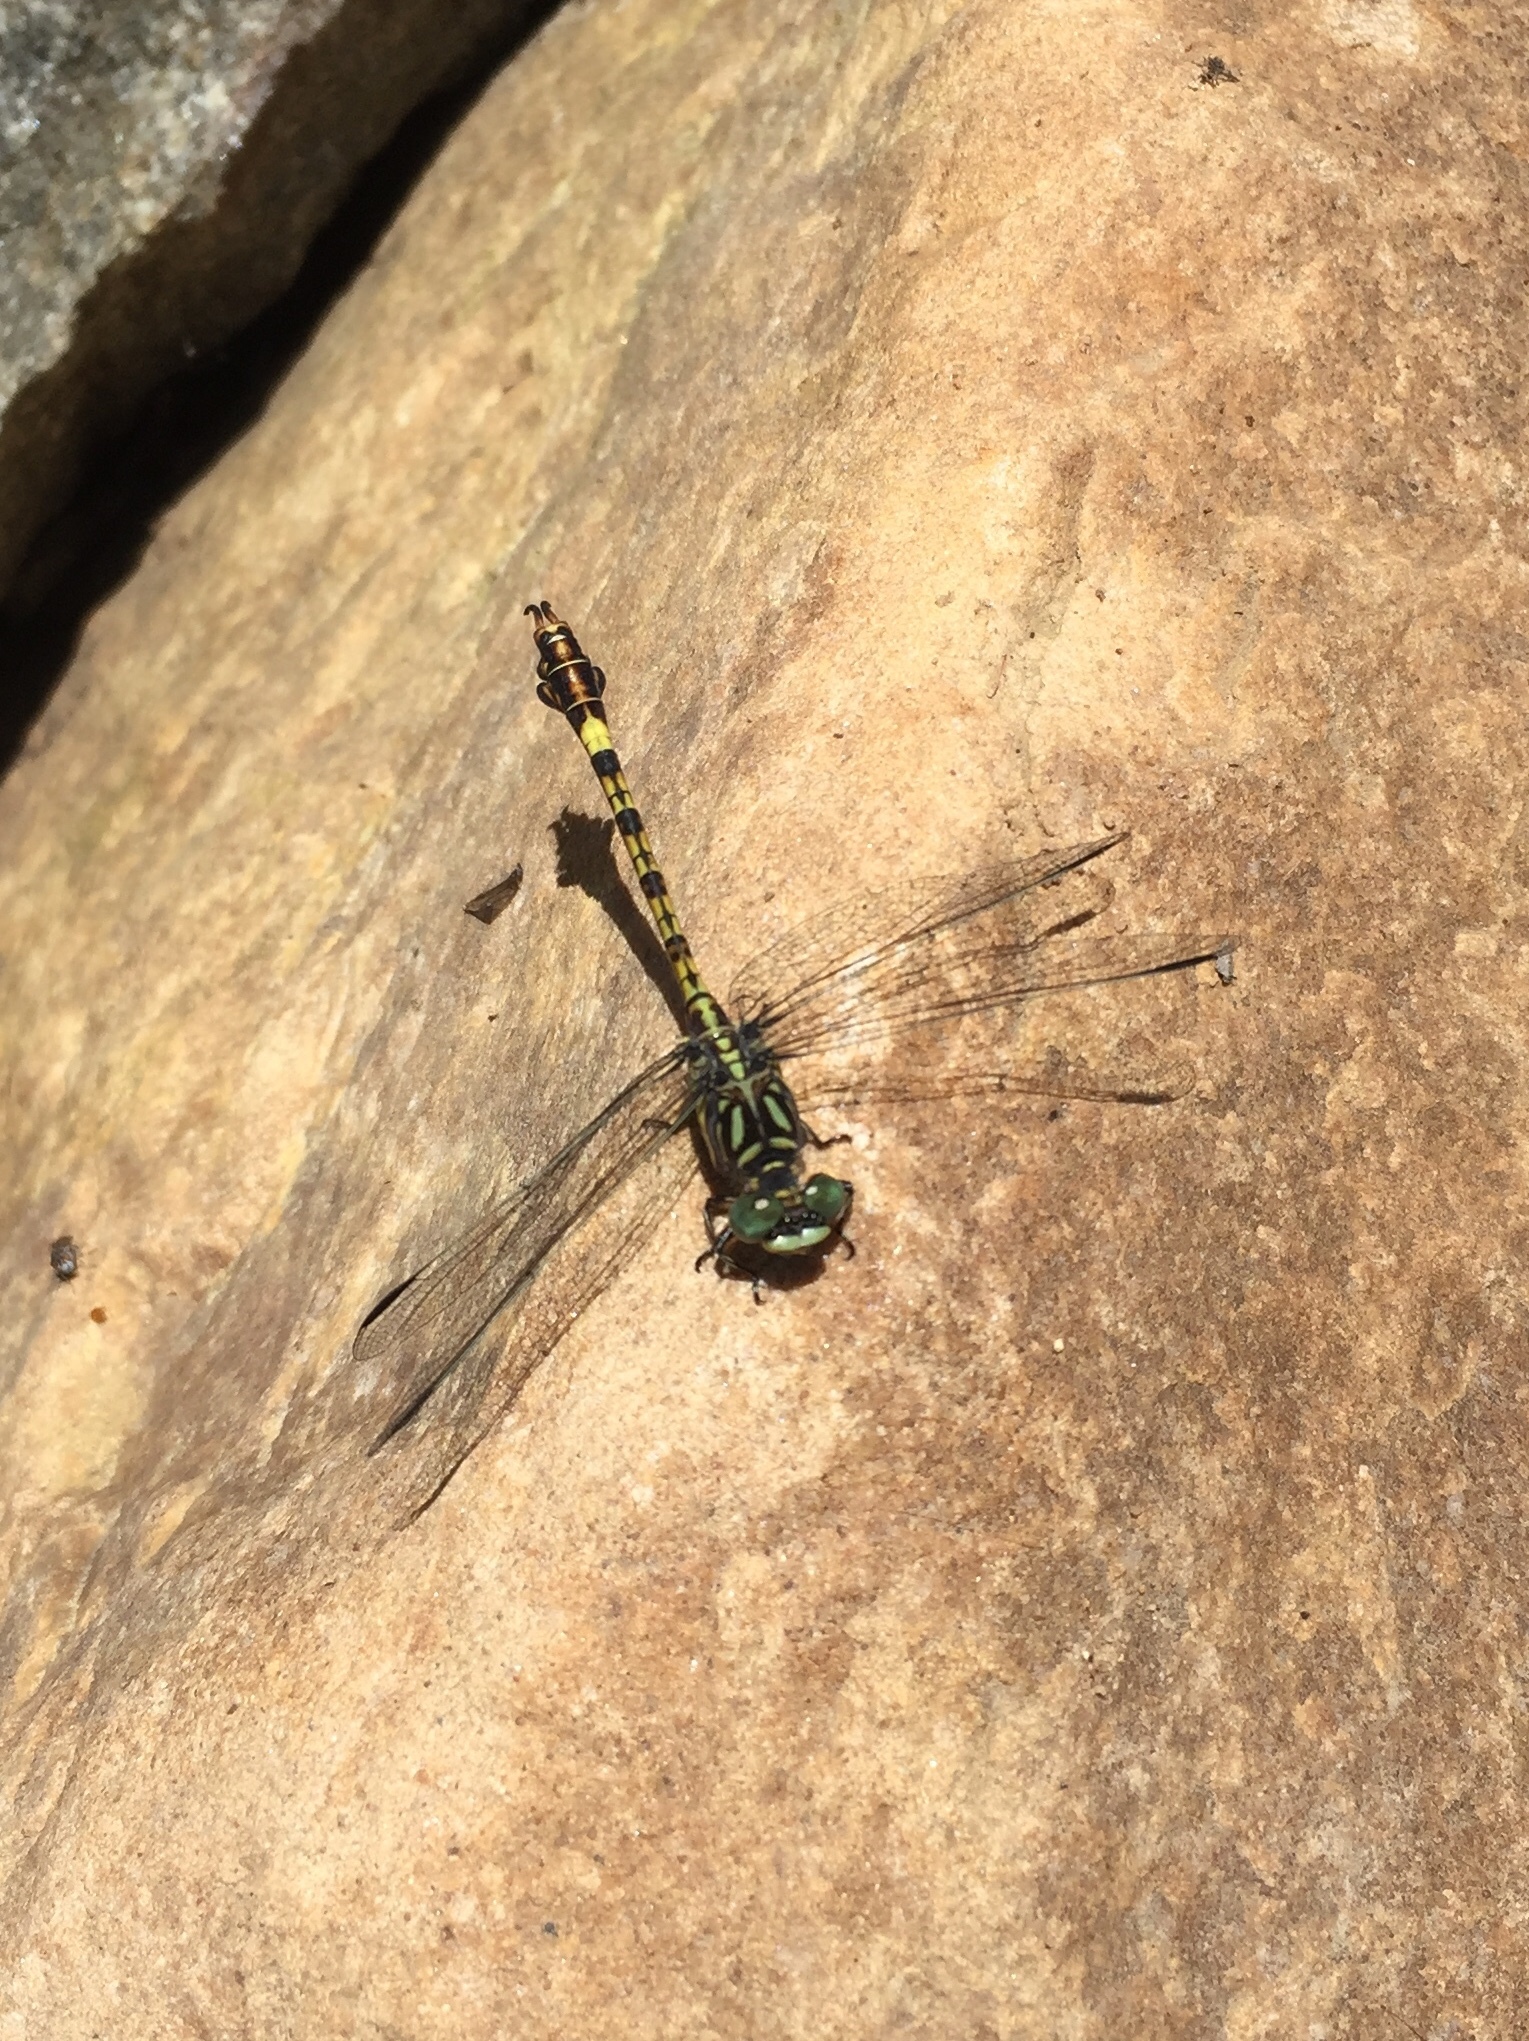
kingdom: Animalia
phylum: Arthropoda
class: Insecta
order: Odonata
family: Gomphidae
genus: Paragomphus
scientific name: Paragomphus cognatus
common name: Boulder hooktail
